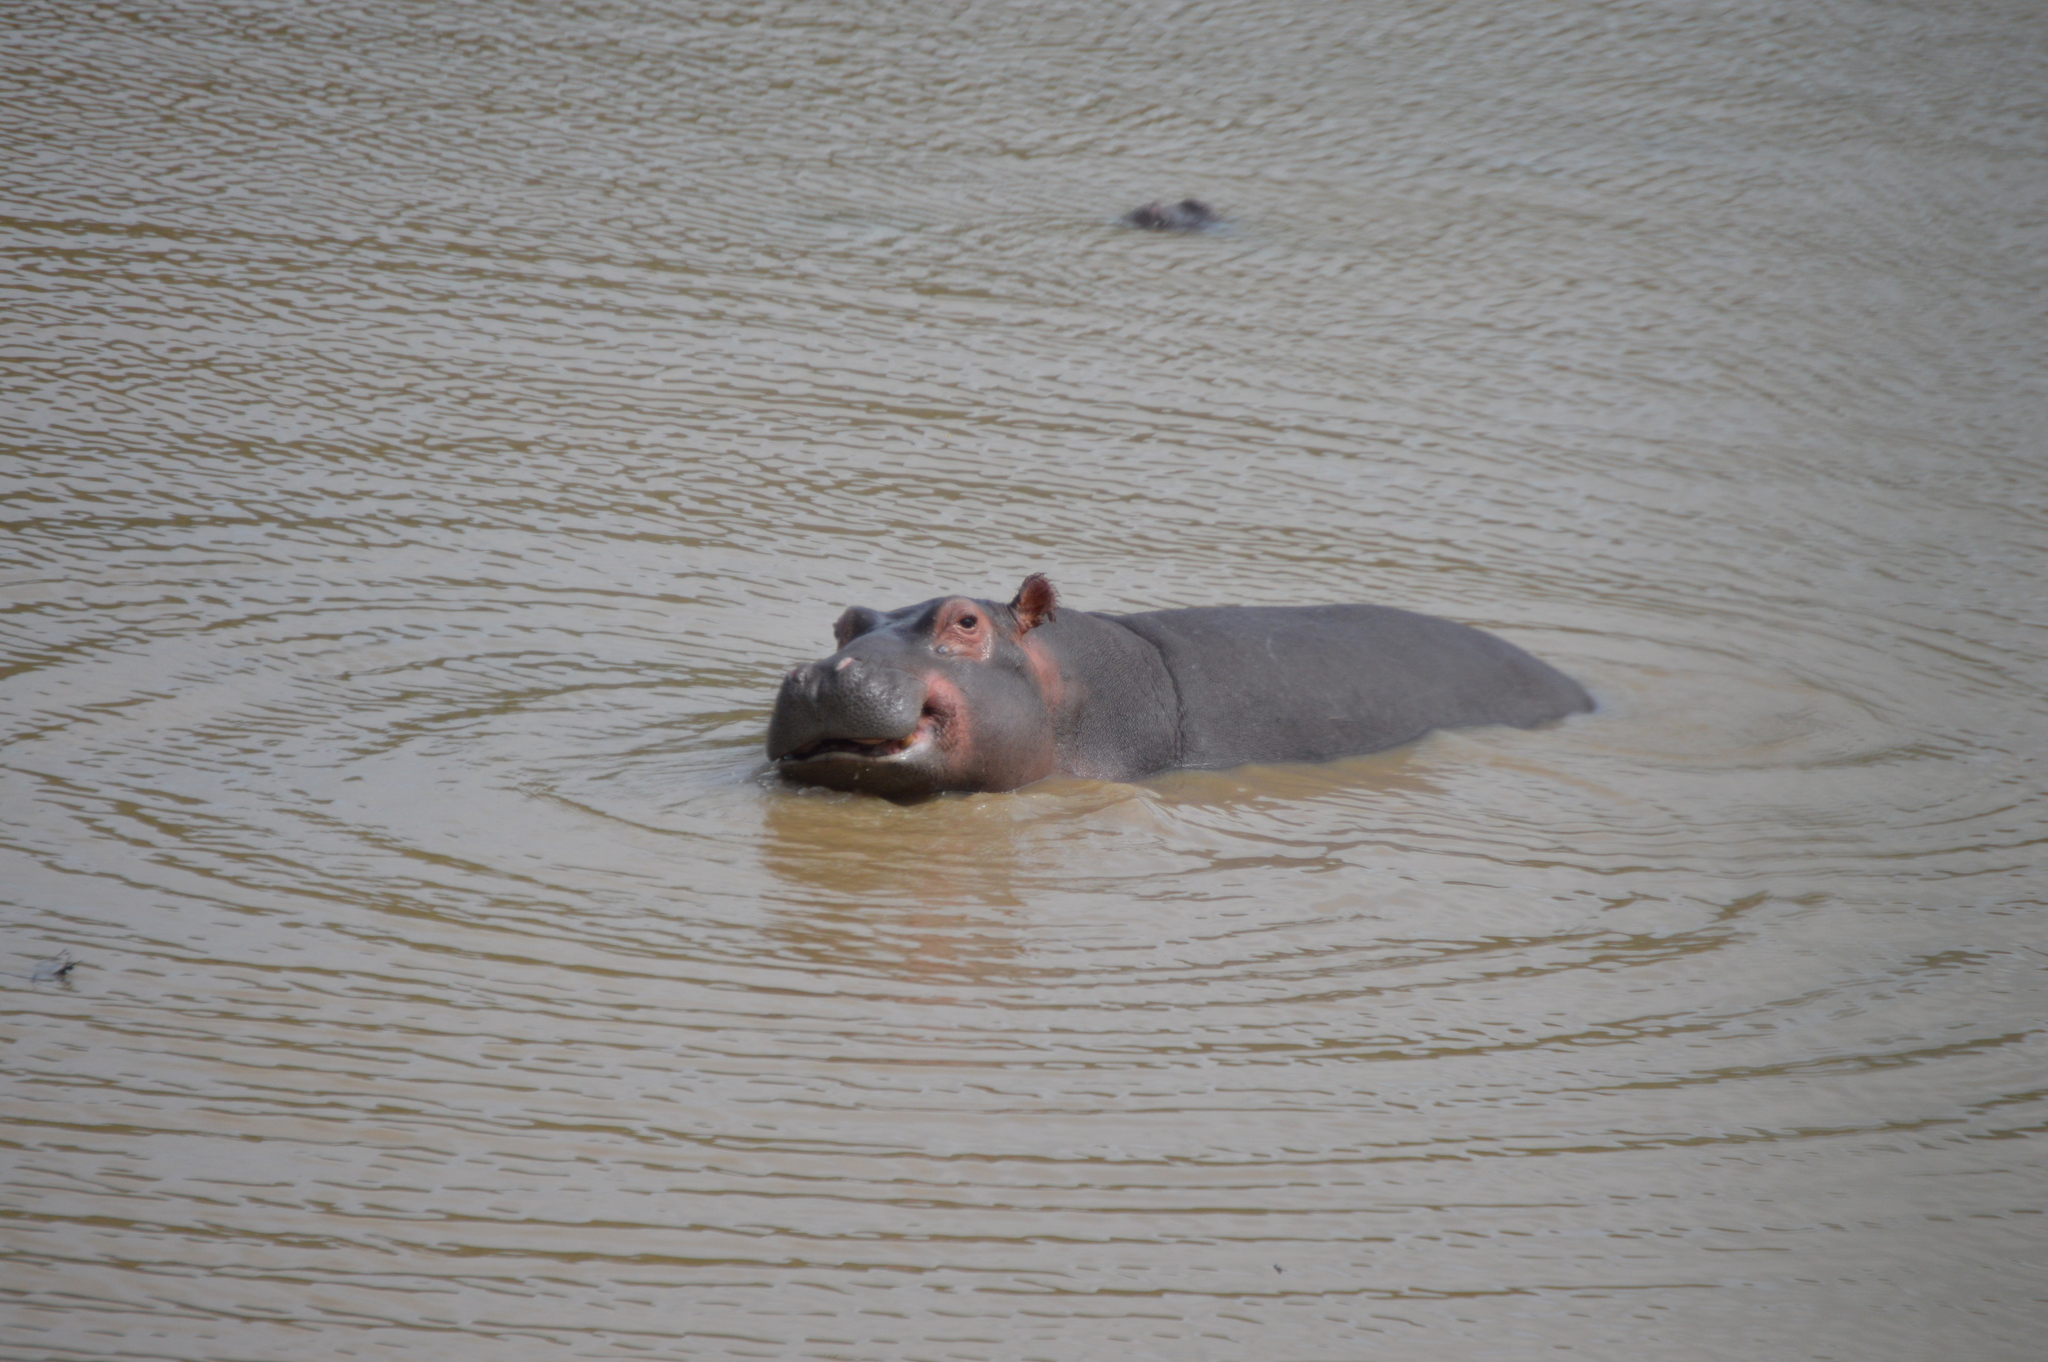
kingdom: Animalia
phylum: Chordata
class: Mammalia
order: Artiodactyla
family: Hippopotamidae
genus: Hippopotamus
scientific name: Hippopotamus amphibius
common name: Common hippopotamus
